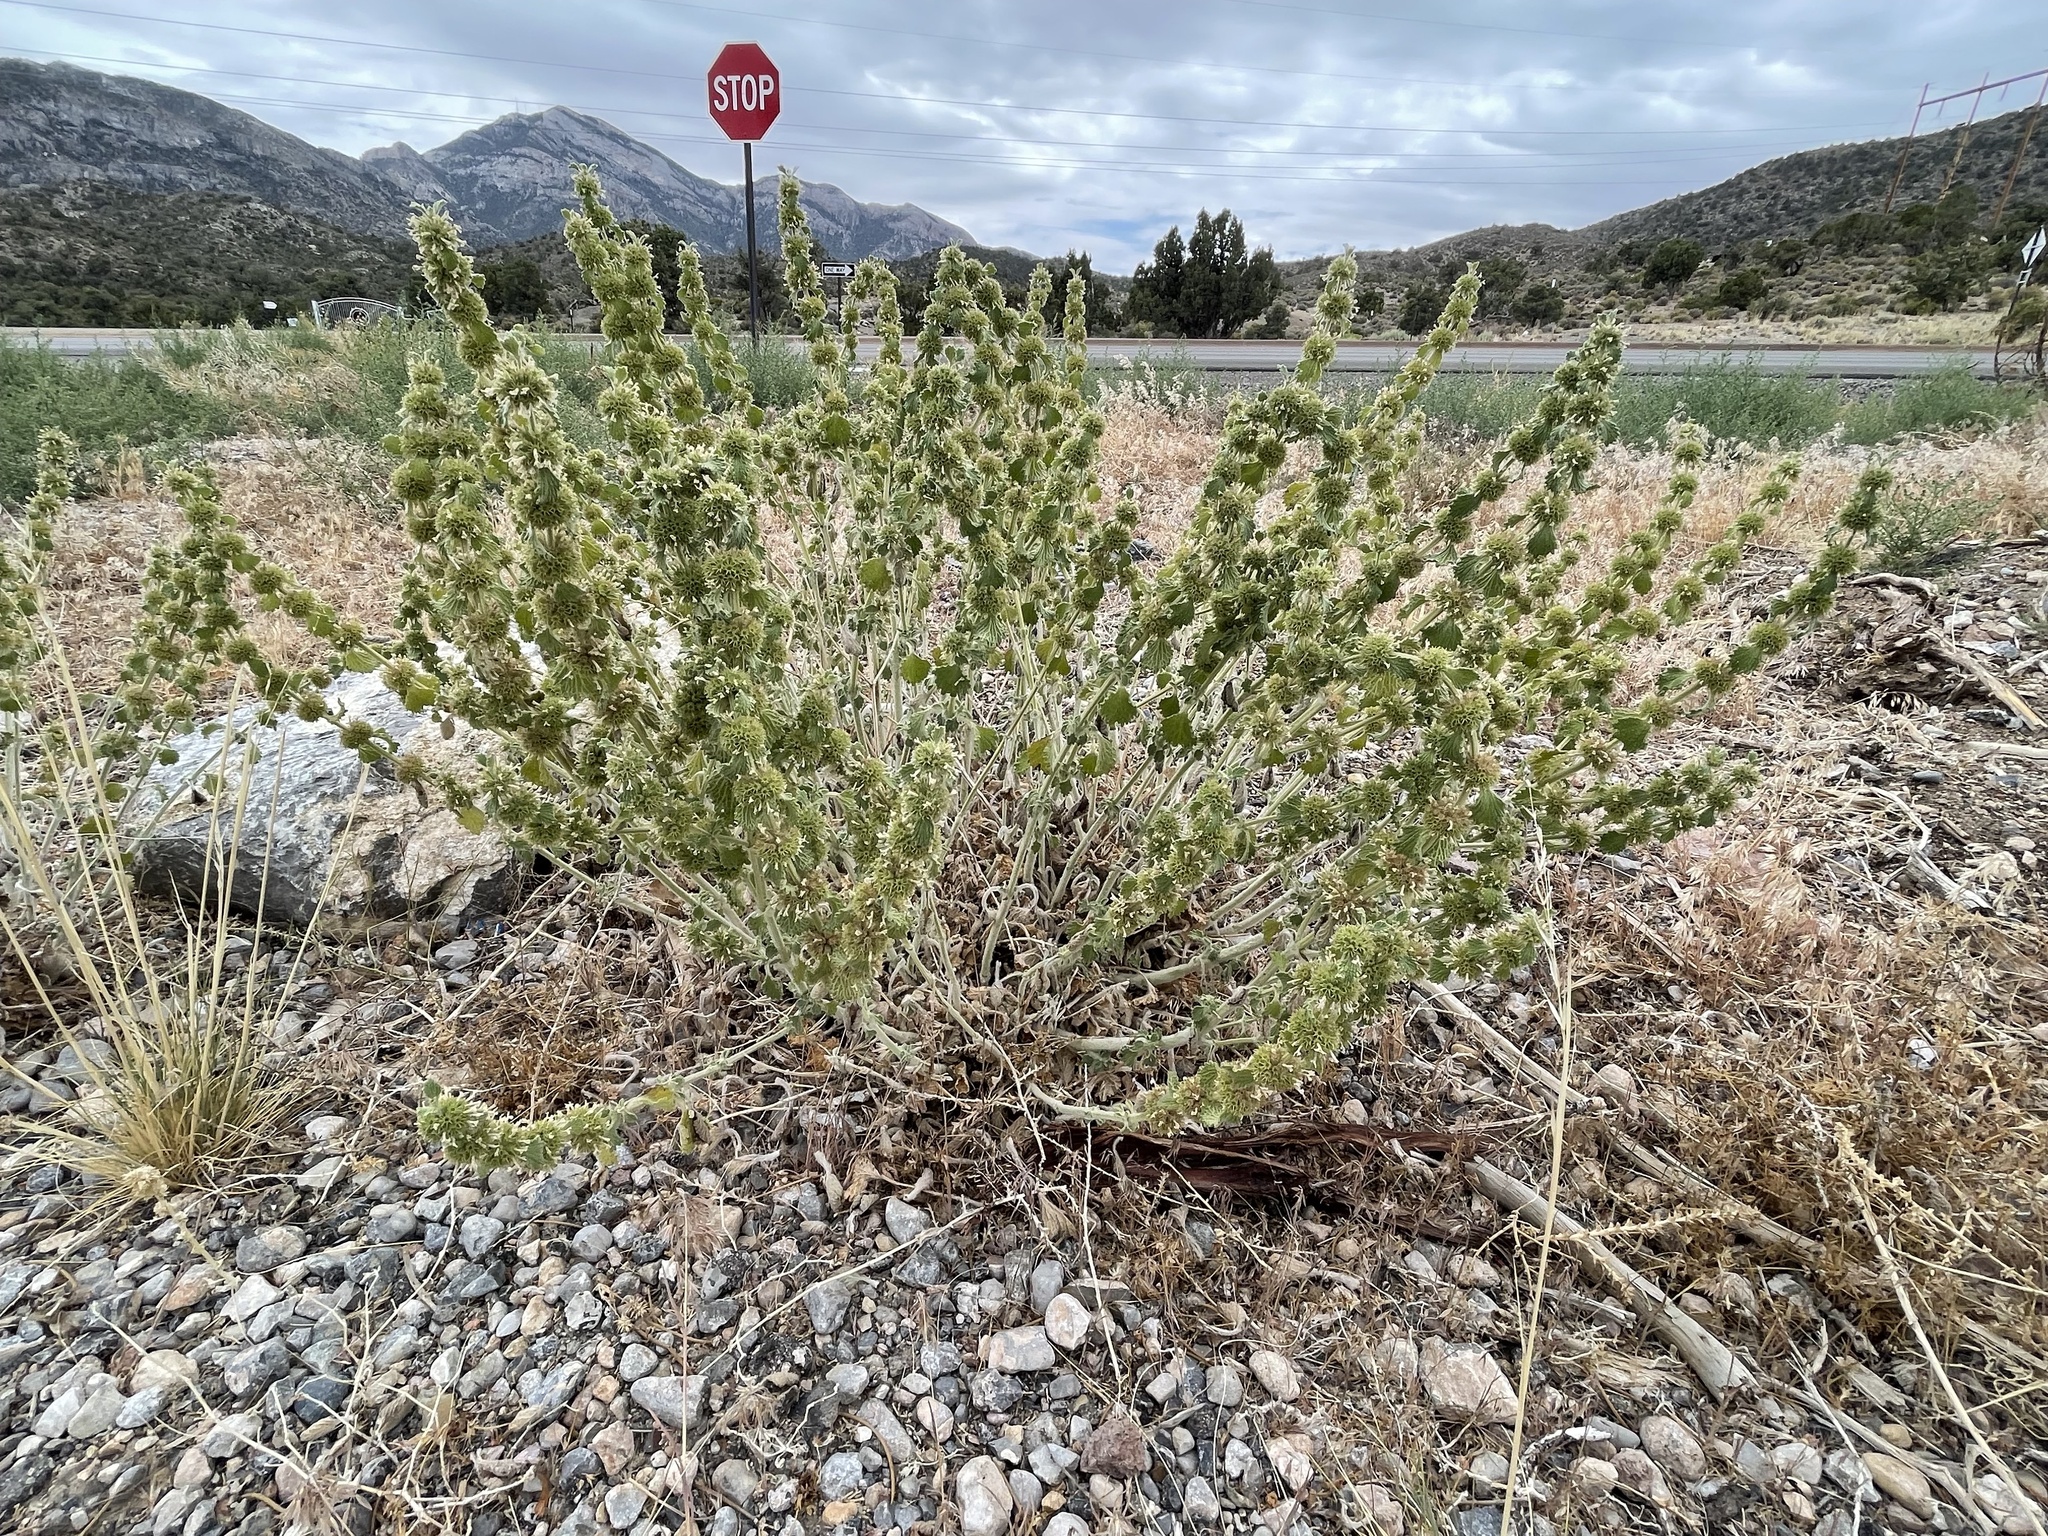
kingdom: Plantae
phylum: Tracheophyta
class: Magnoliopsida
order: Lamiales
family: Lamiaceae
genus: Marrubium
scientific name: Marrubium vulgare
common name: Horehound
